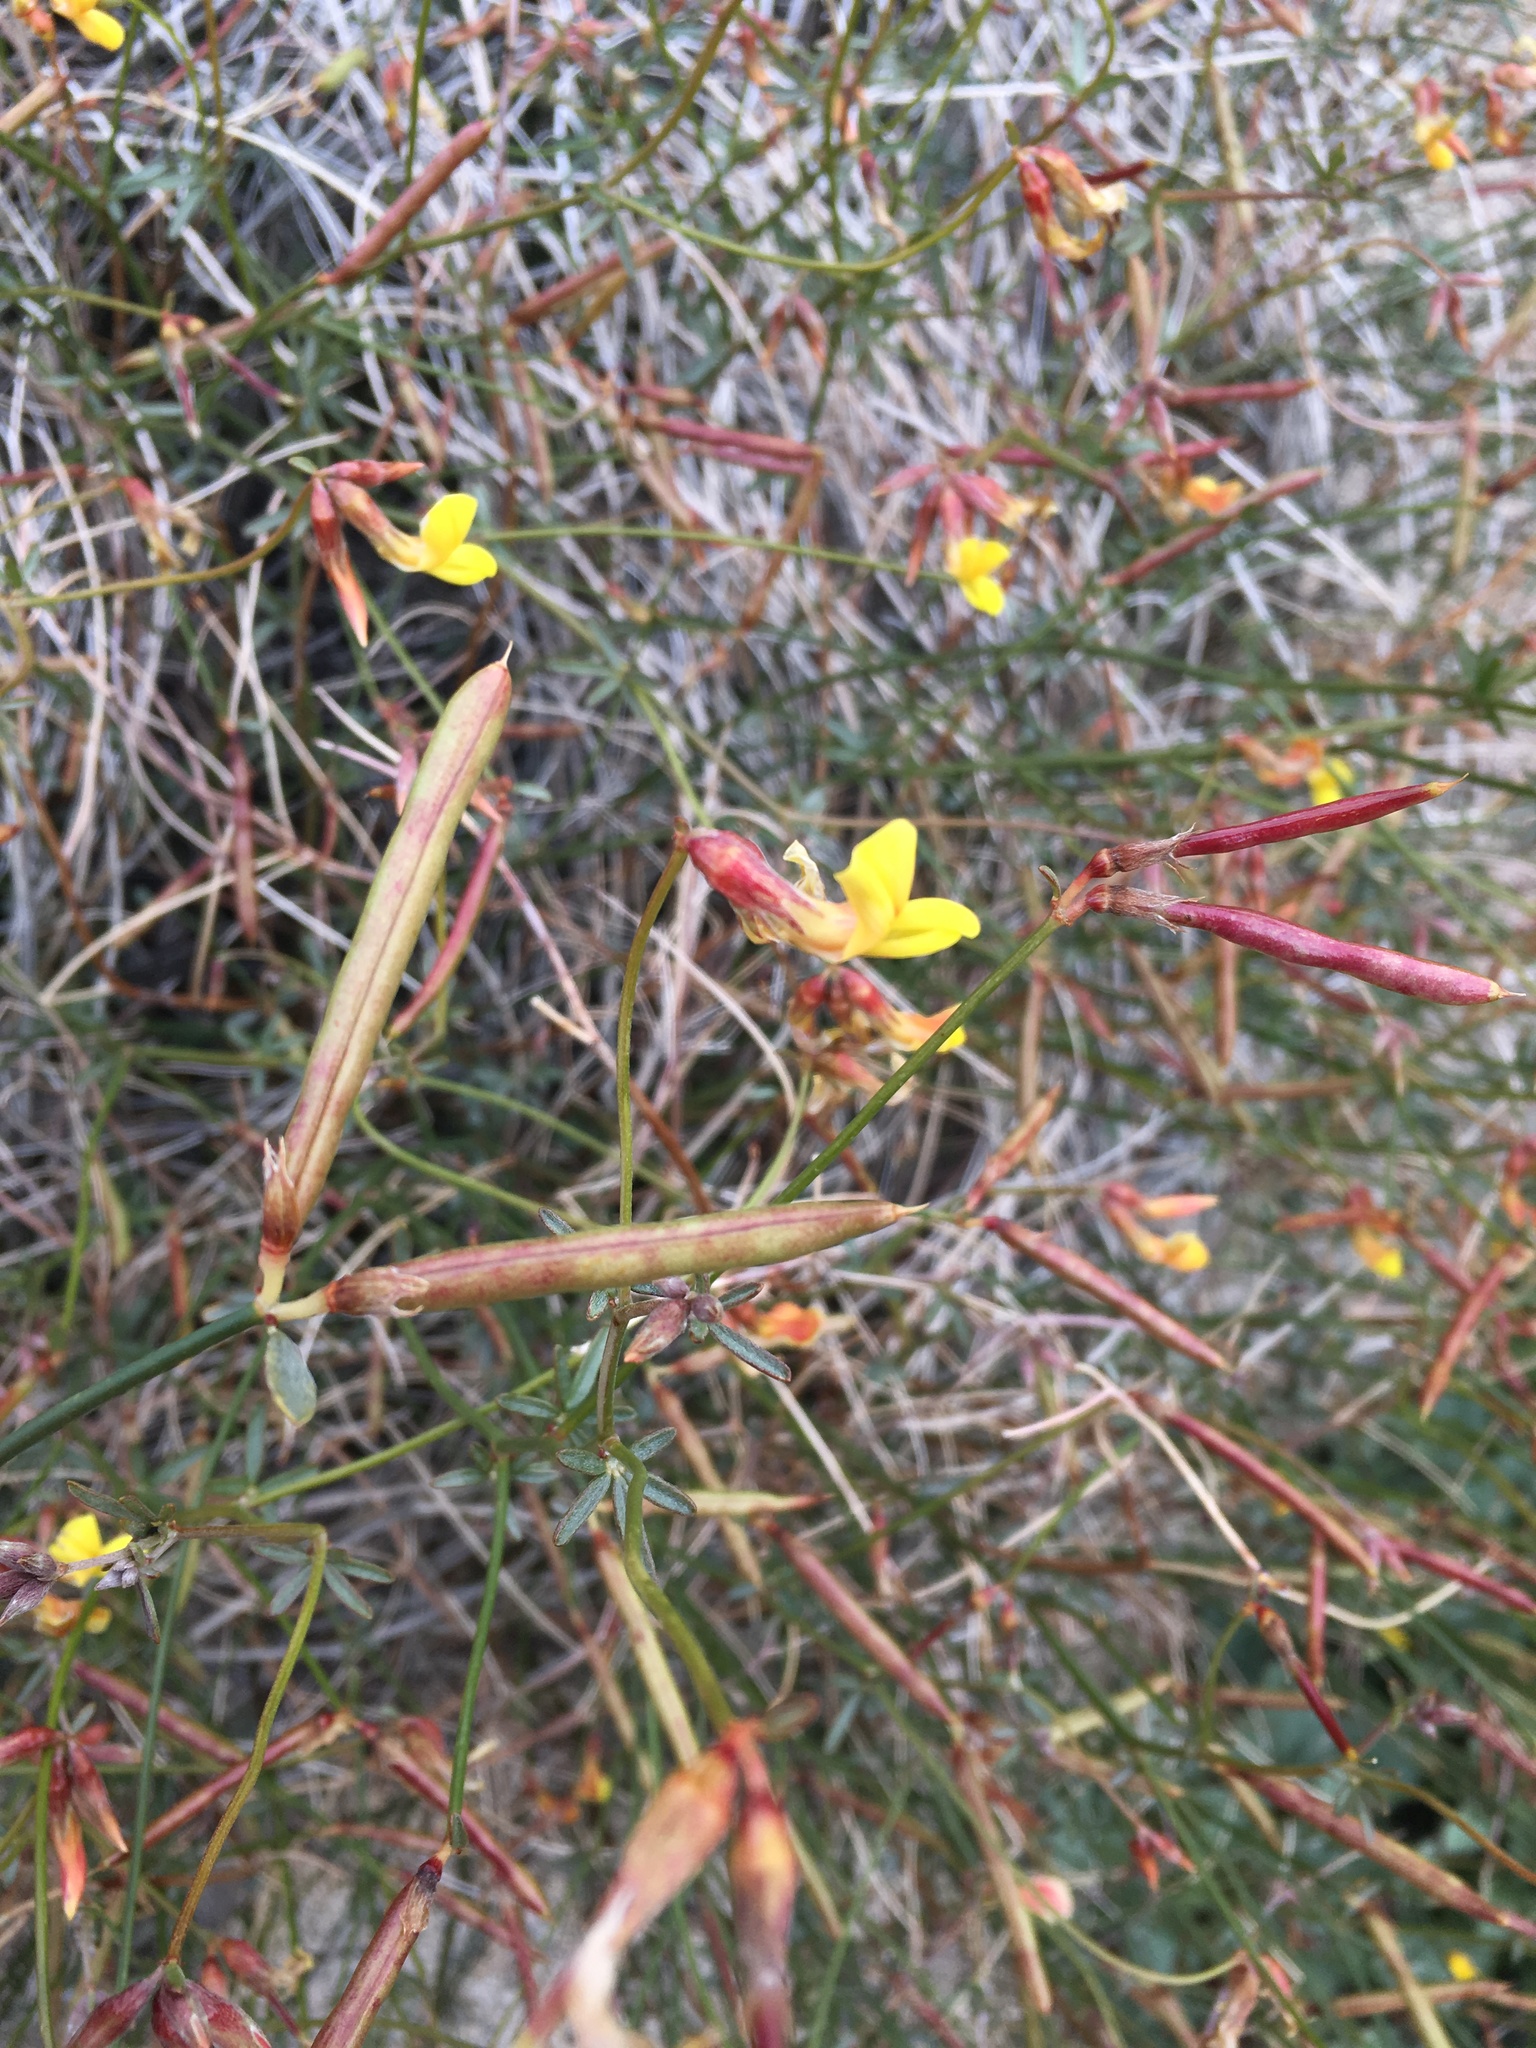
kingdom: Plantae
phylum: Tracheophyta
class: Magnoliopsida
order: Fabales
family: Fabaceae
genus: Acmispon
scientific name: Acmispon rigidus
